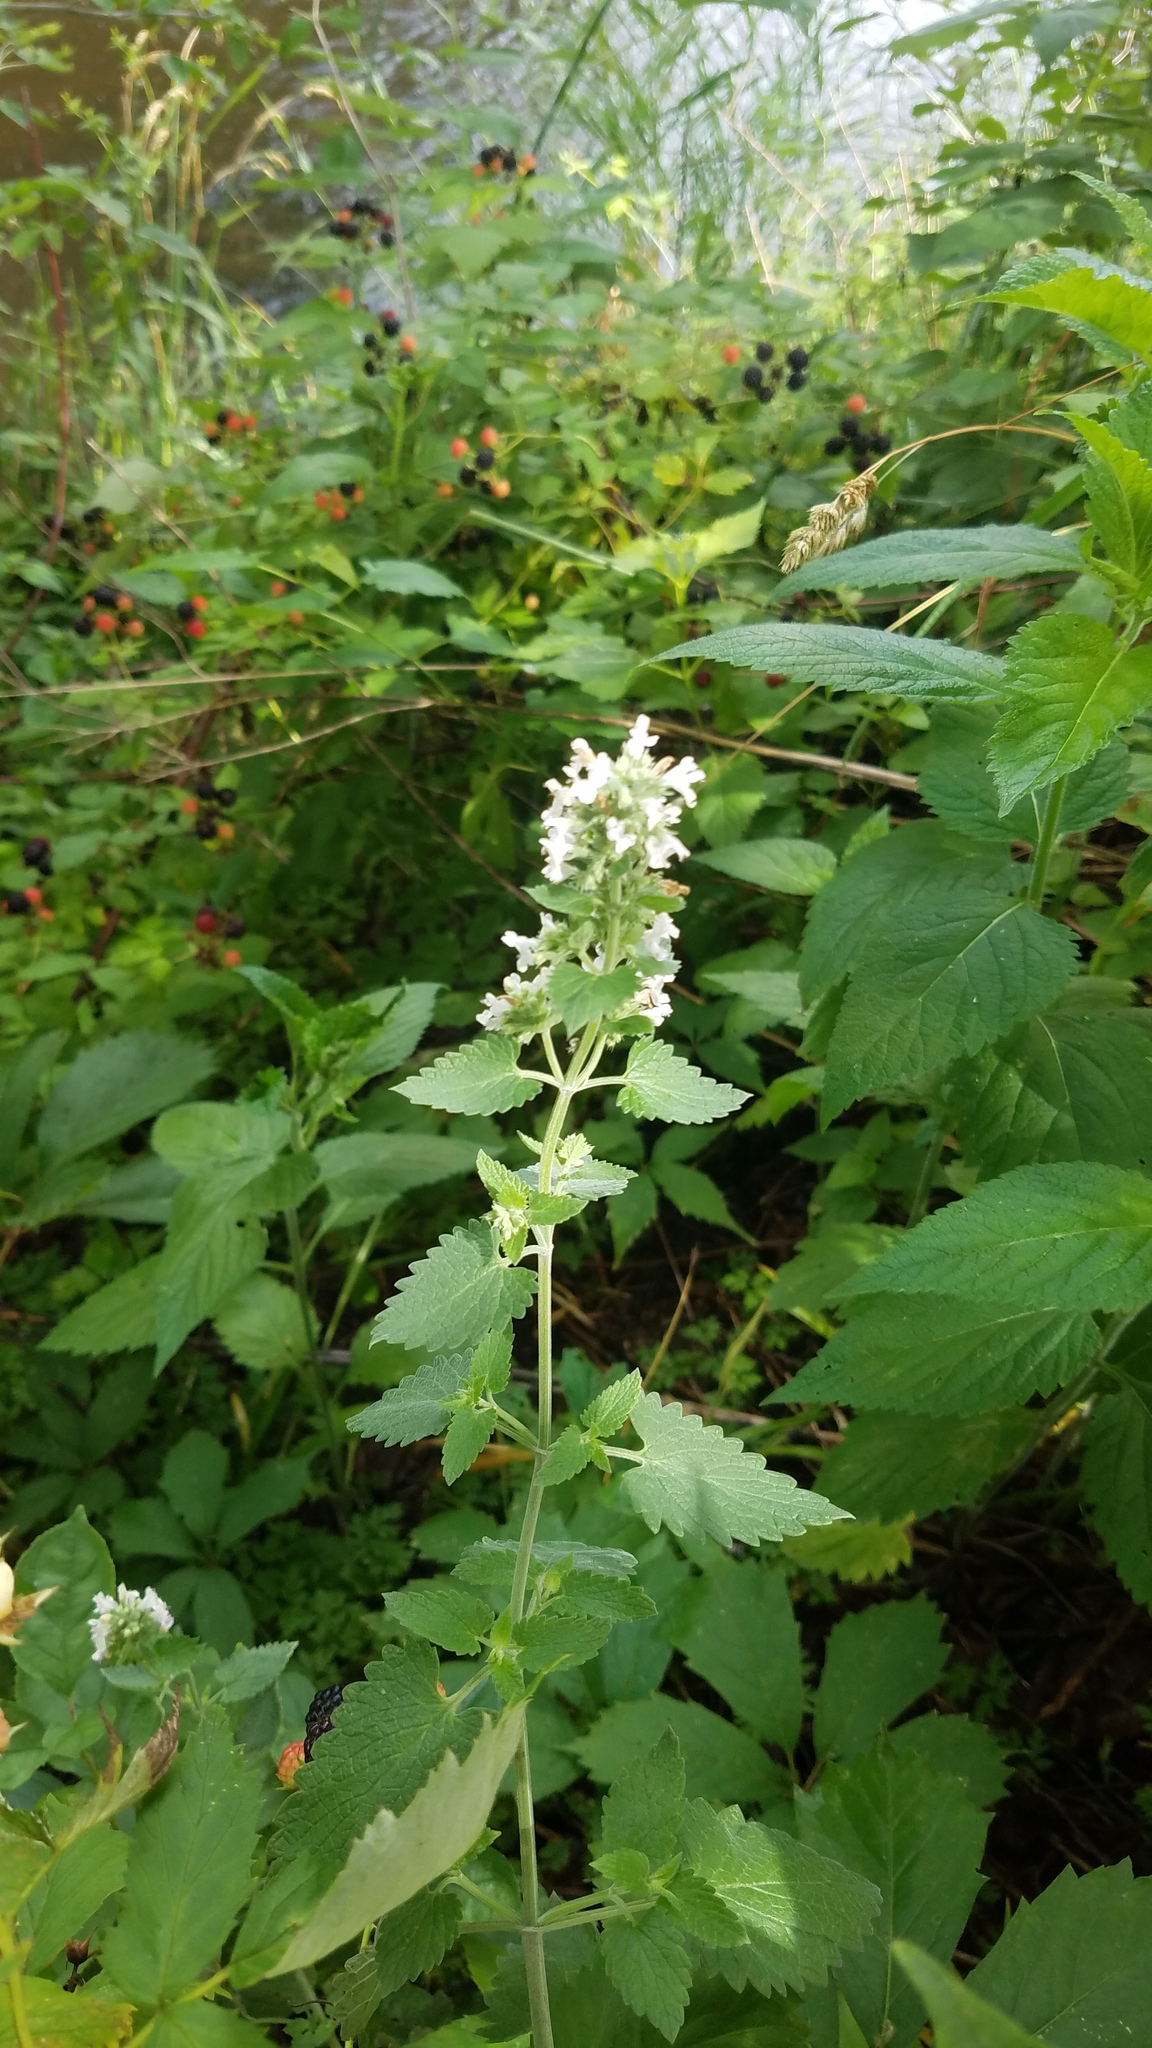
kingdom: Plantae
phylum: Tracheophyta
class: Magnoliopsida
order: Lamiales
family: Lamiaceae
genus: Nepeta
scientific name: Nepeta cataria
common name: Catnip
